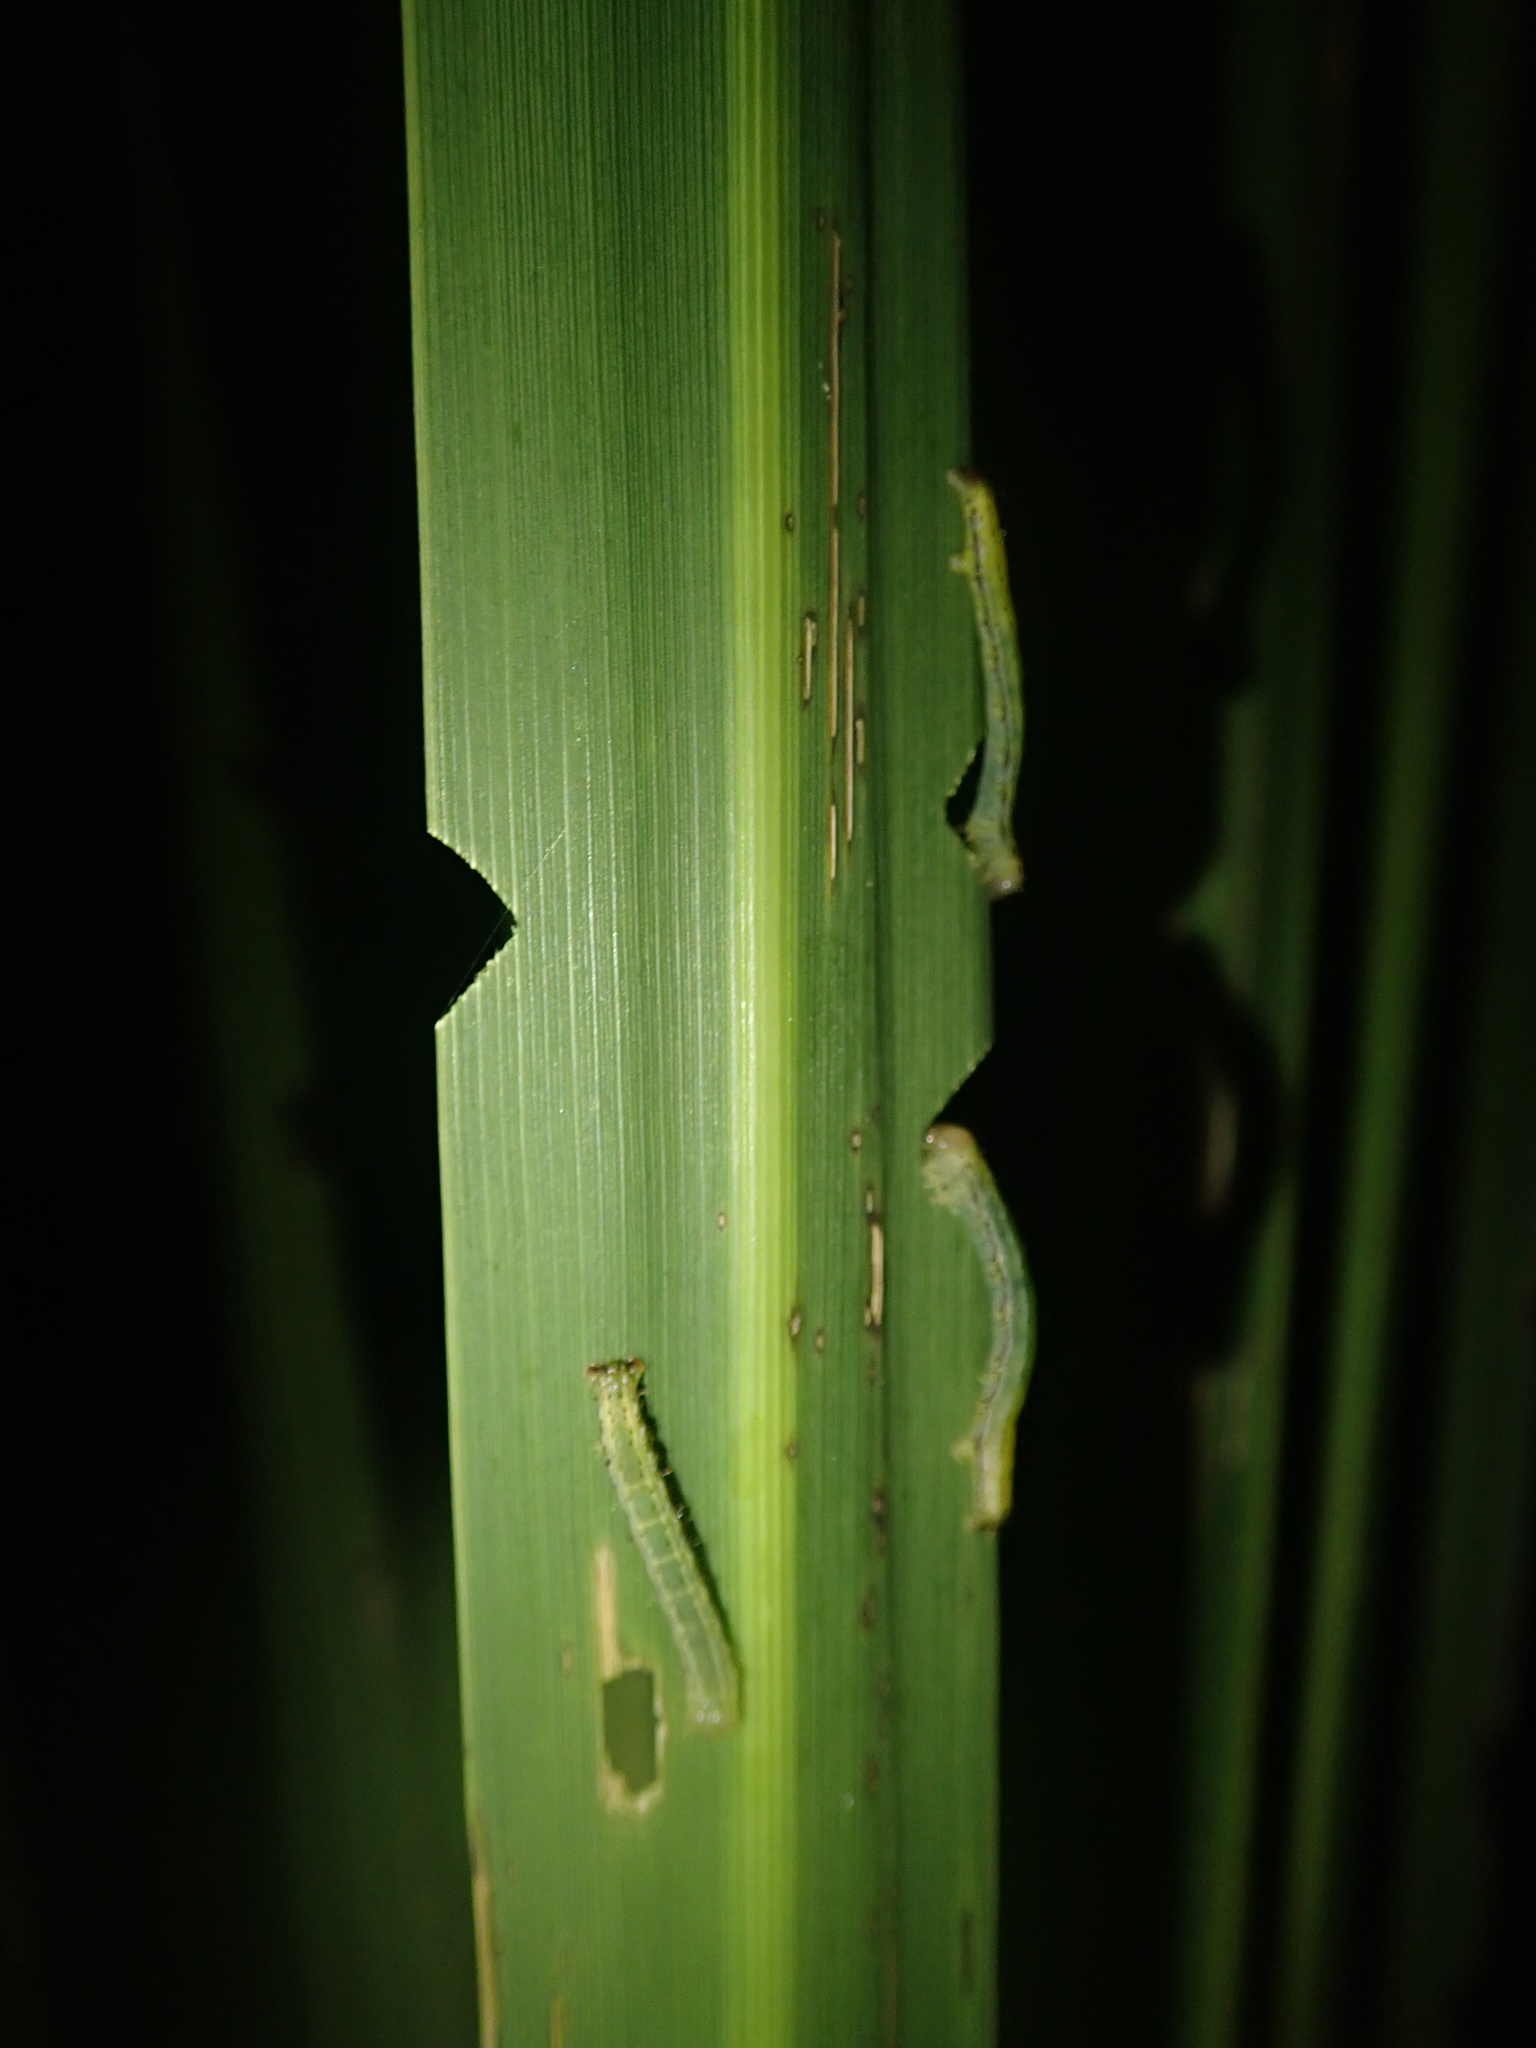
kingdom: Animalia
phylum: Arthropoda
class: Insecta
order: Lepidoptera
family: Geometridae
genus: Epiphryne
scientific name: Epiphryne verriculata
